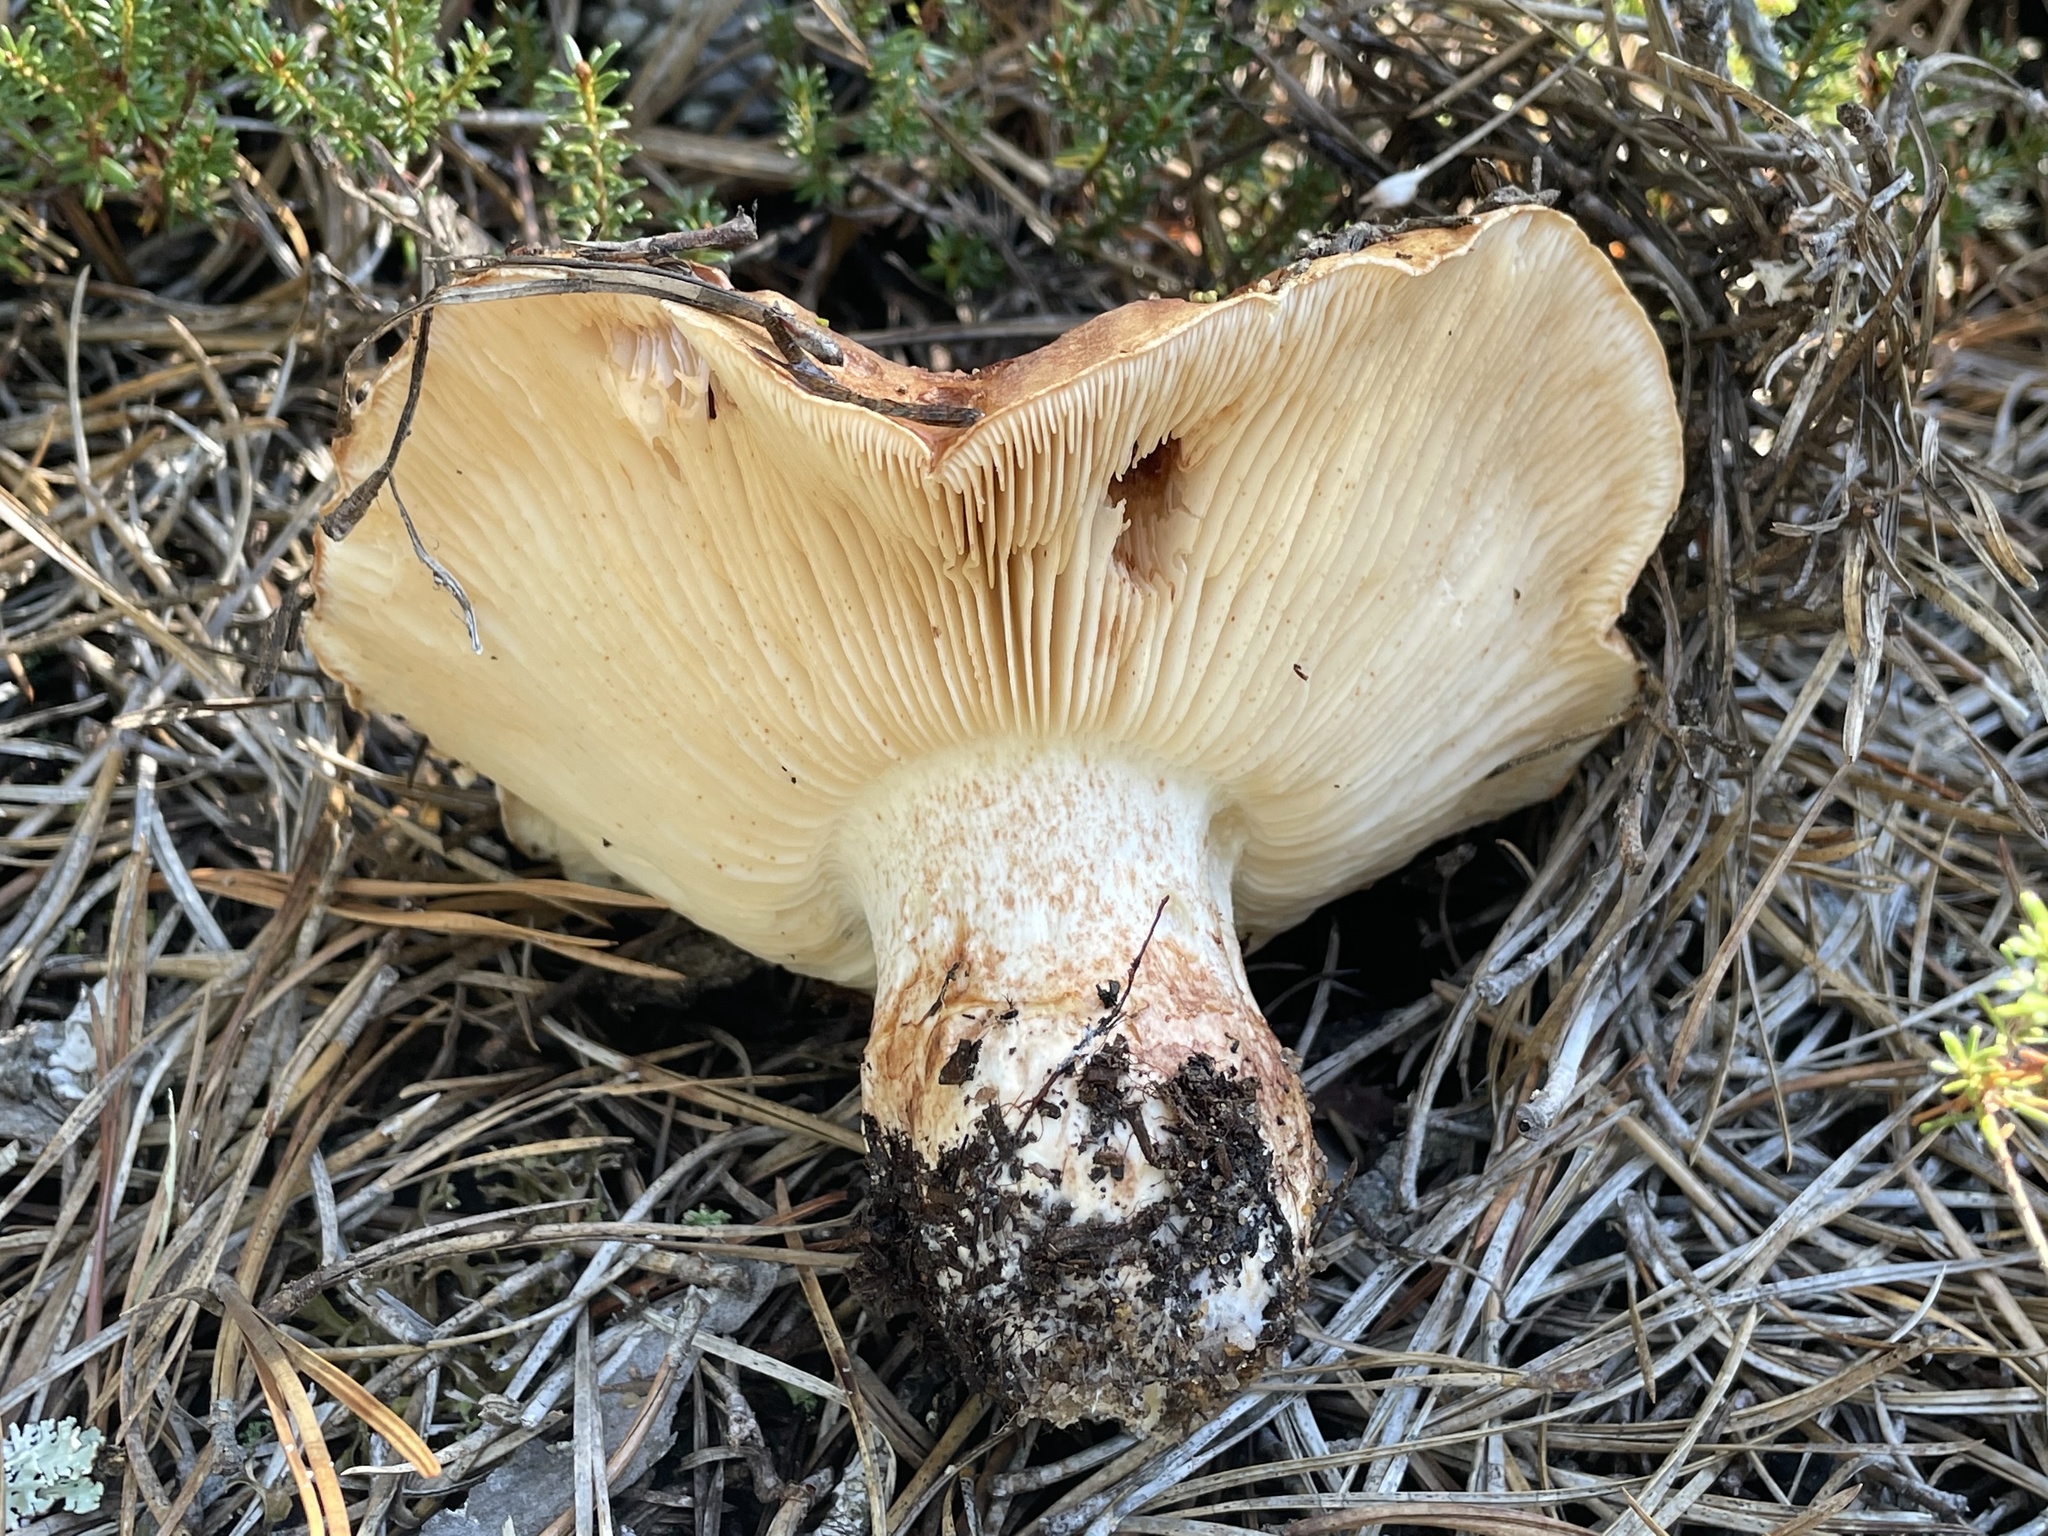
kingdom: Fungi
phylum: Basidiomycota
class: Agaricomycetes
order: Agaricales
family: Tricholomataceae
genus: Tricholoma
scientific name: Tricholoma colossus
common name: Giant knight
